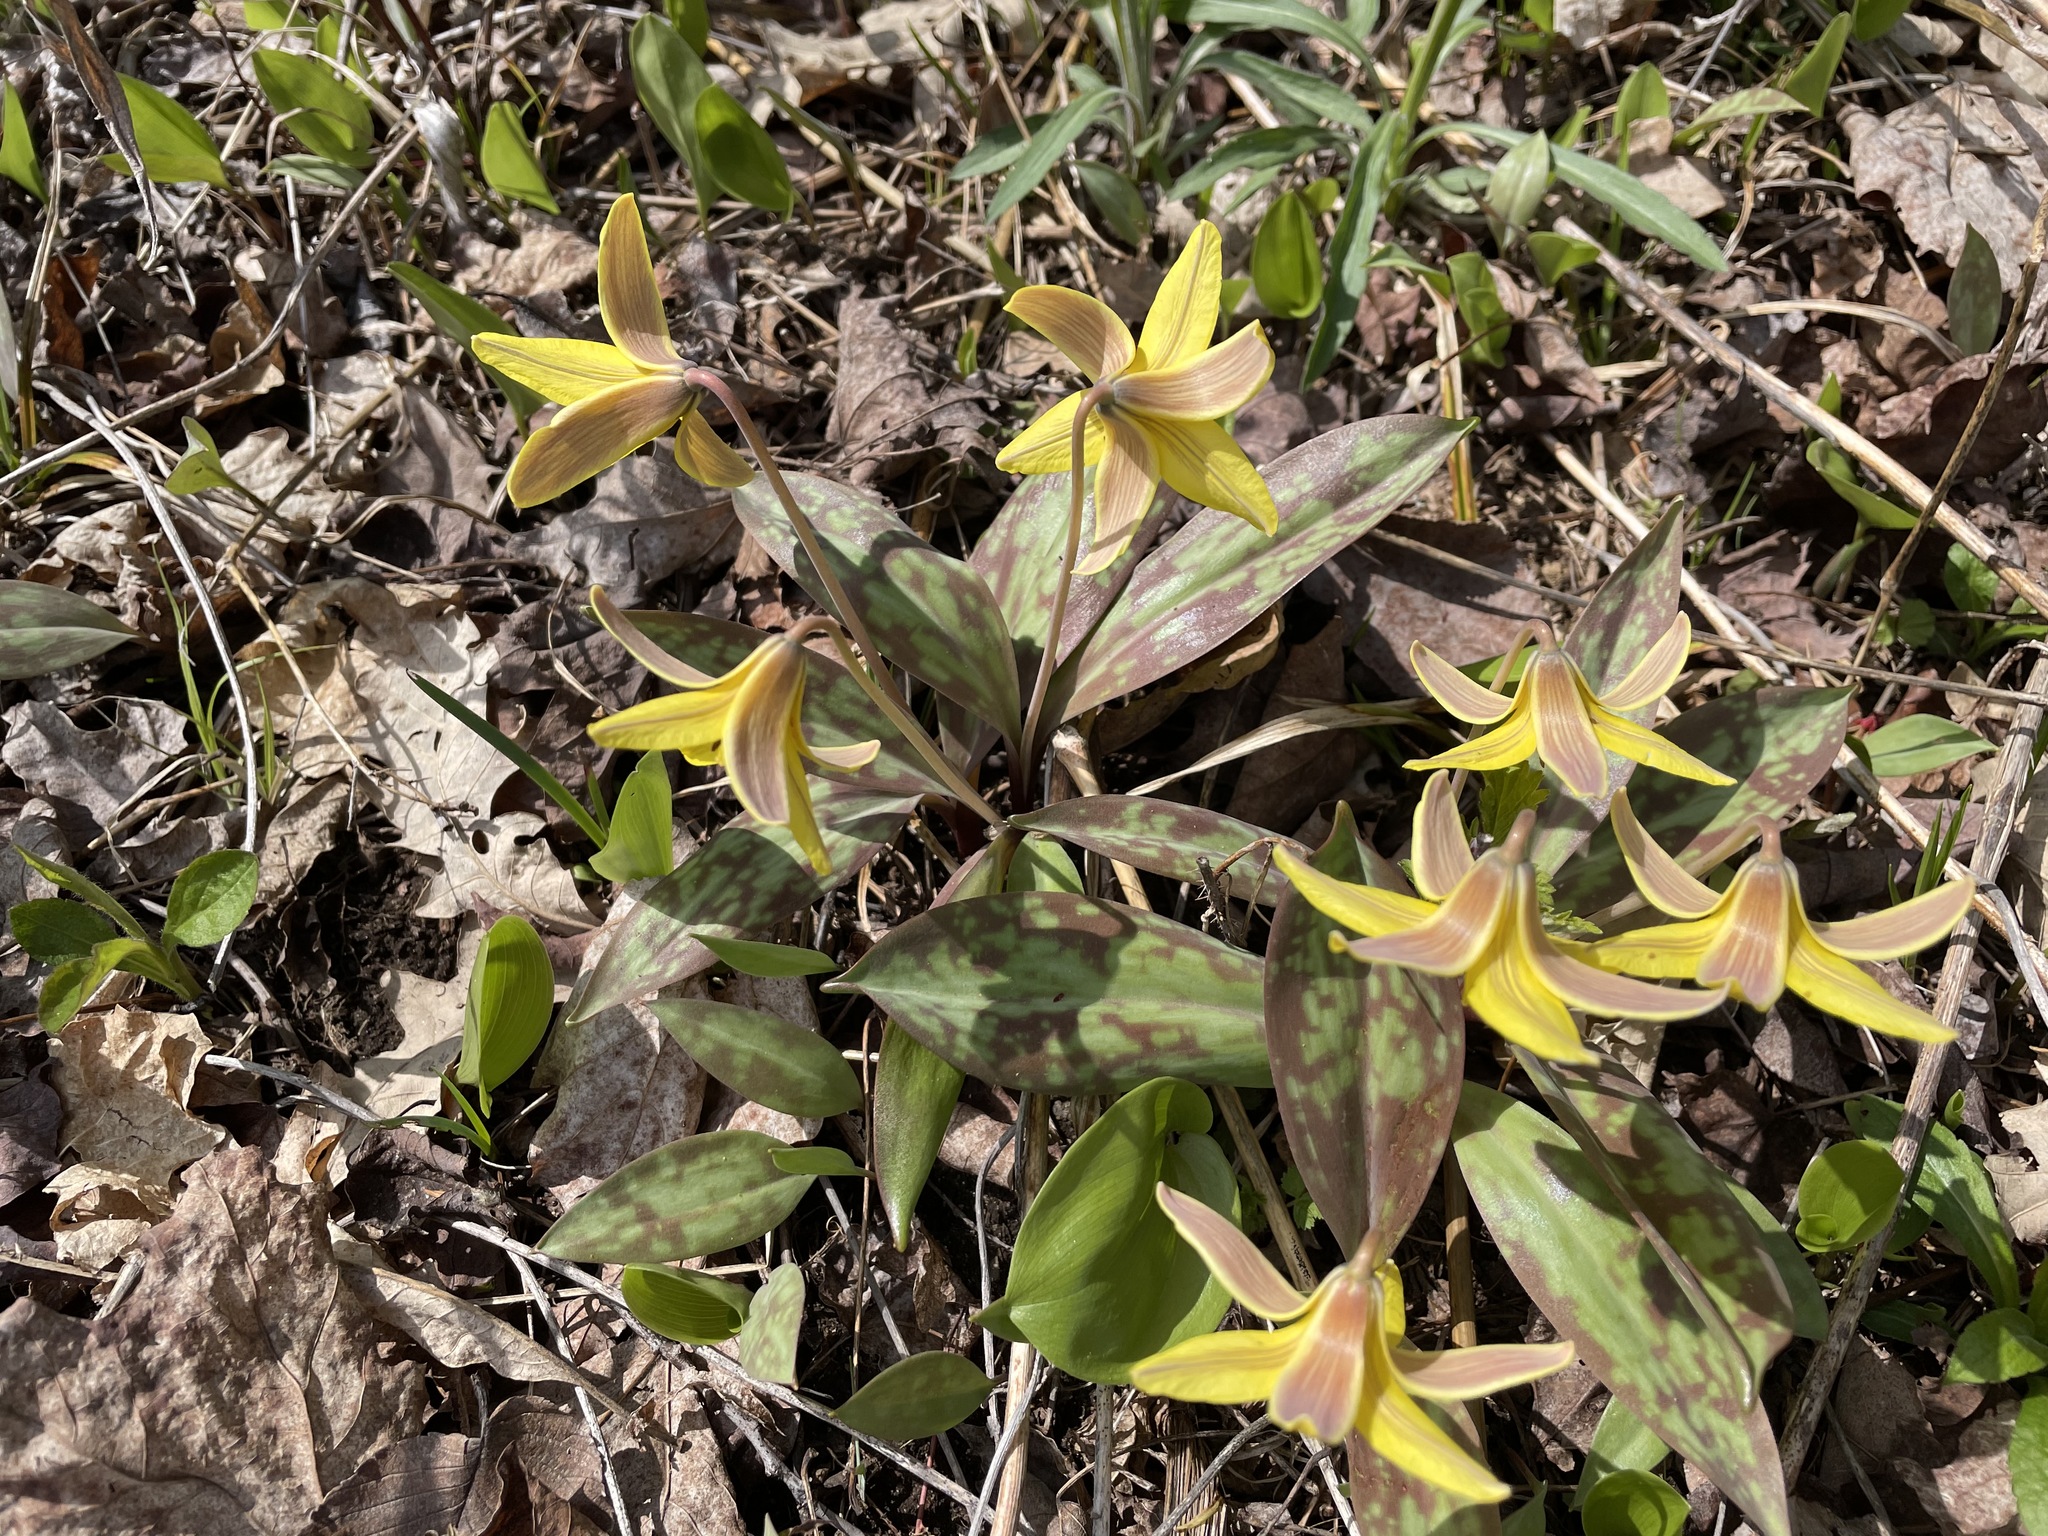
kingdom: Plantae
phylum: Tracheophyta
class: Liliopsida
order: Liliales
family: Liliaceae
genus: Erythronium
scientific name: Erythronium americanum
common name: Yellow adder's-tongue
